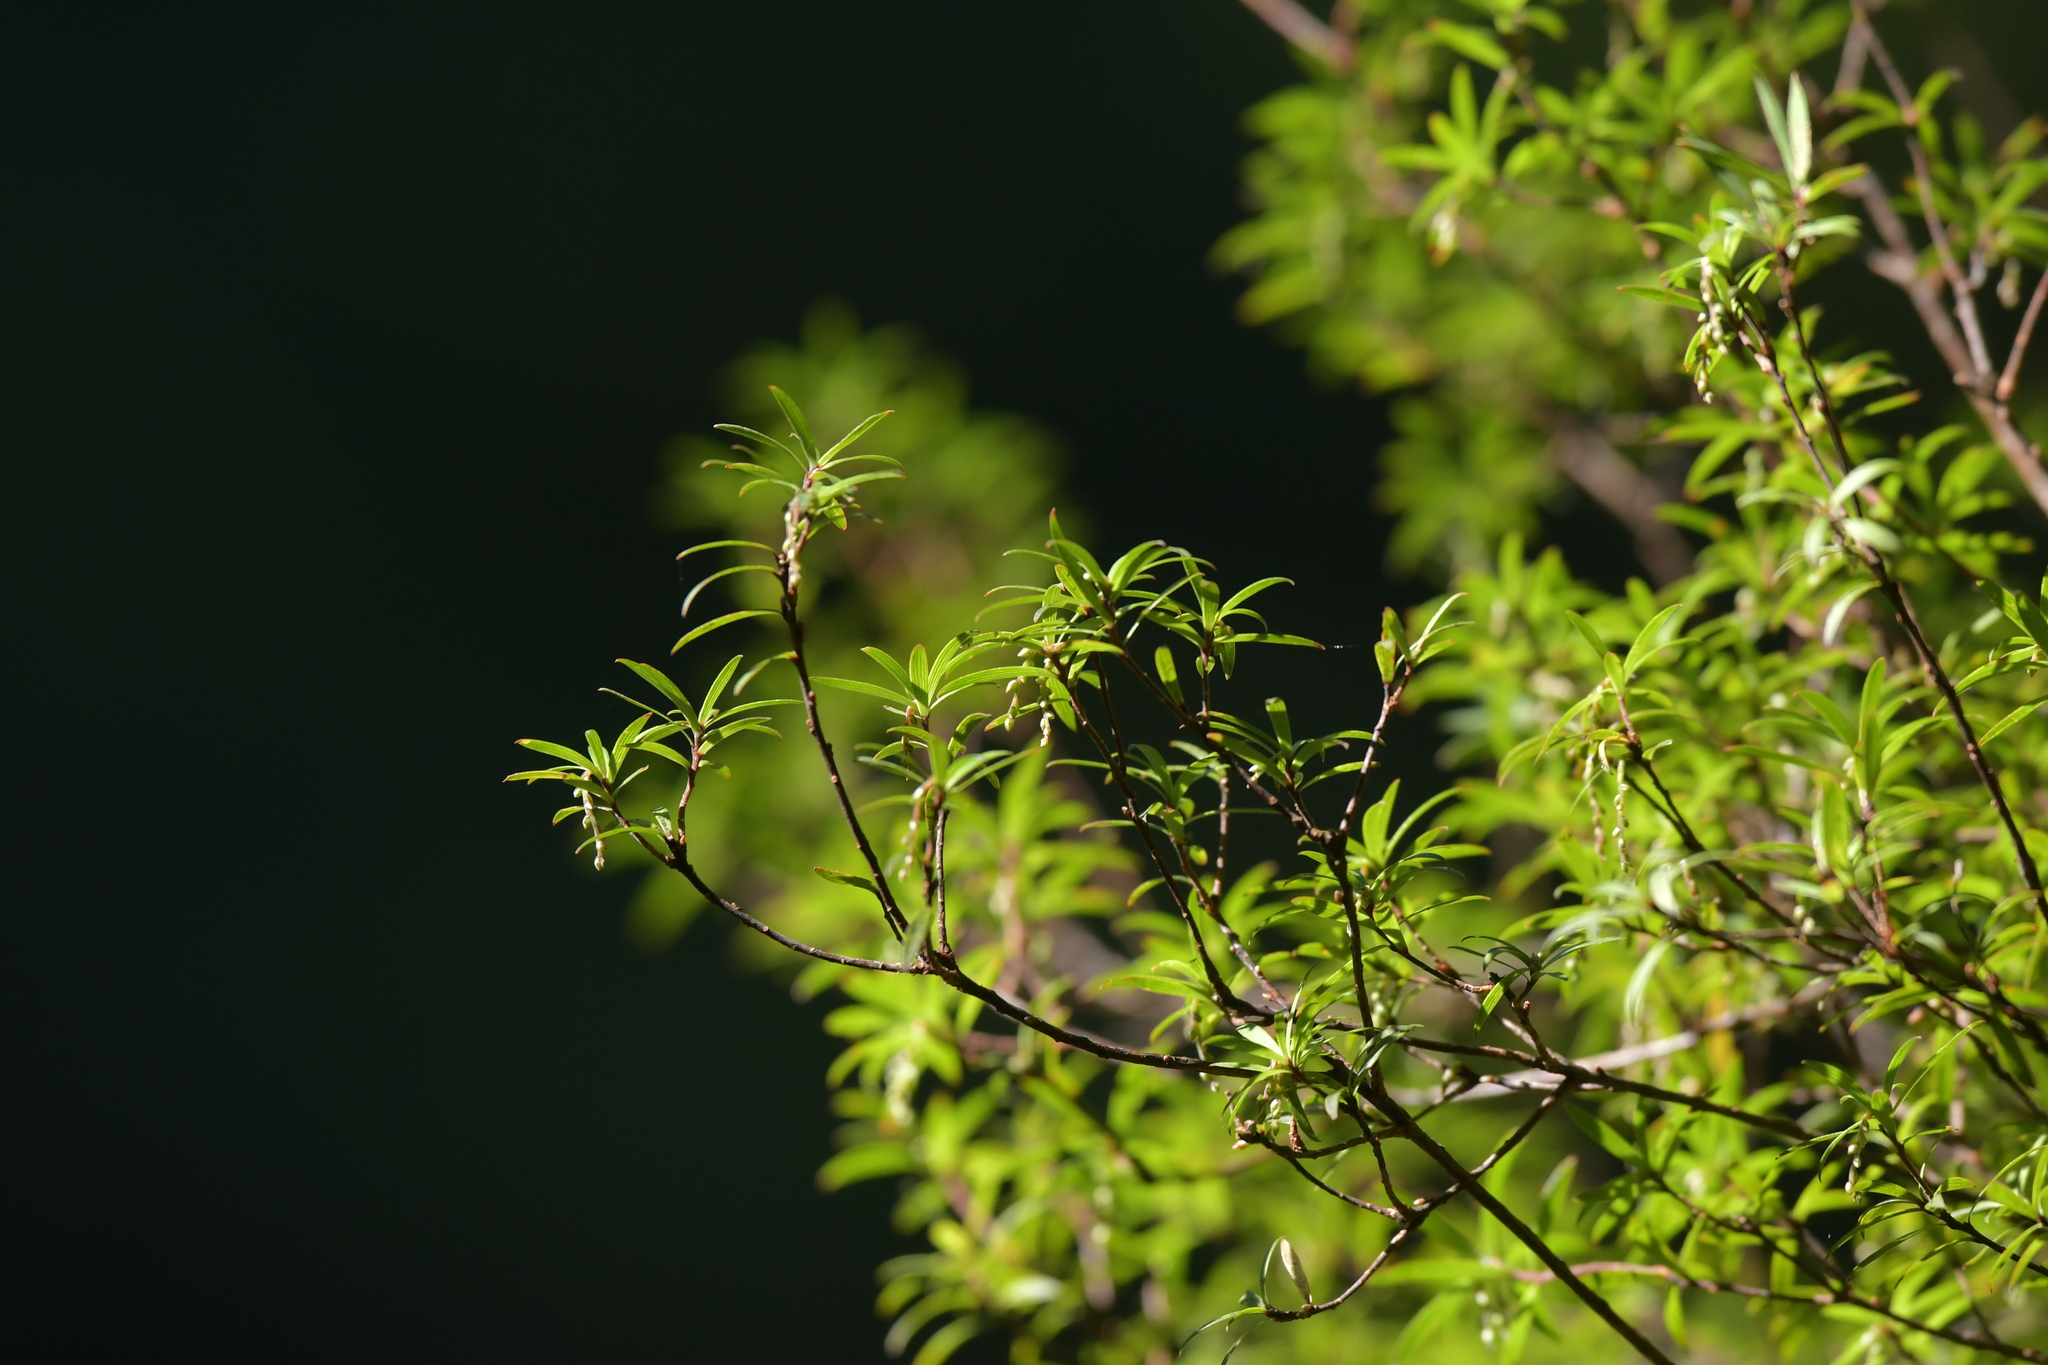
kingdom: Plantae
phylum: Tracheophyta
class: Magnoliopsida
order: Ericales
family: Ericaceae
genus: Leucopogon
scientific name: Leucopogon fasciculatus
